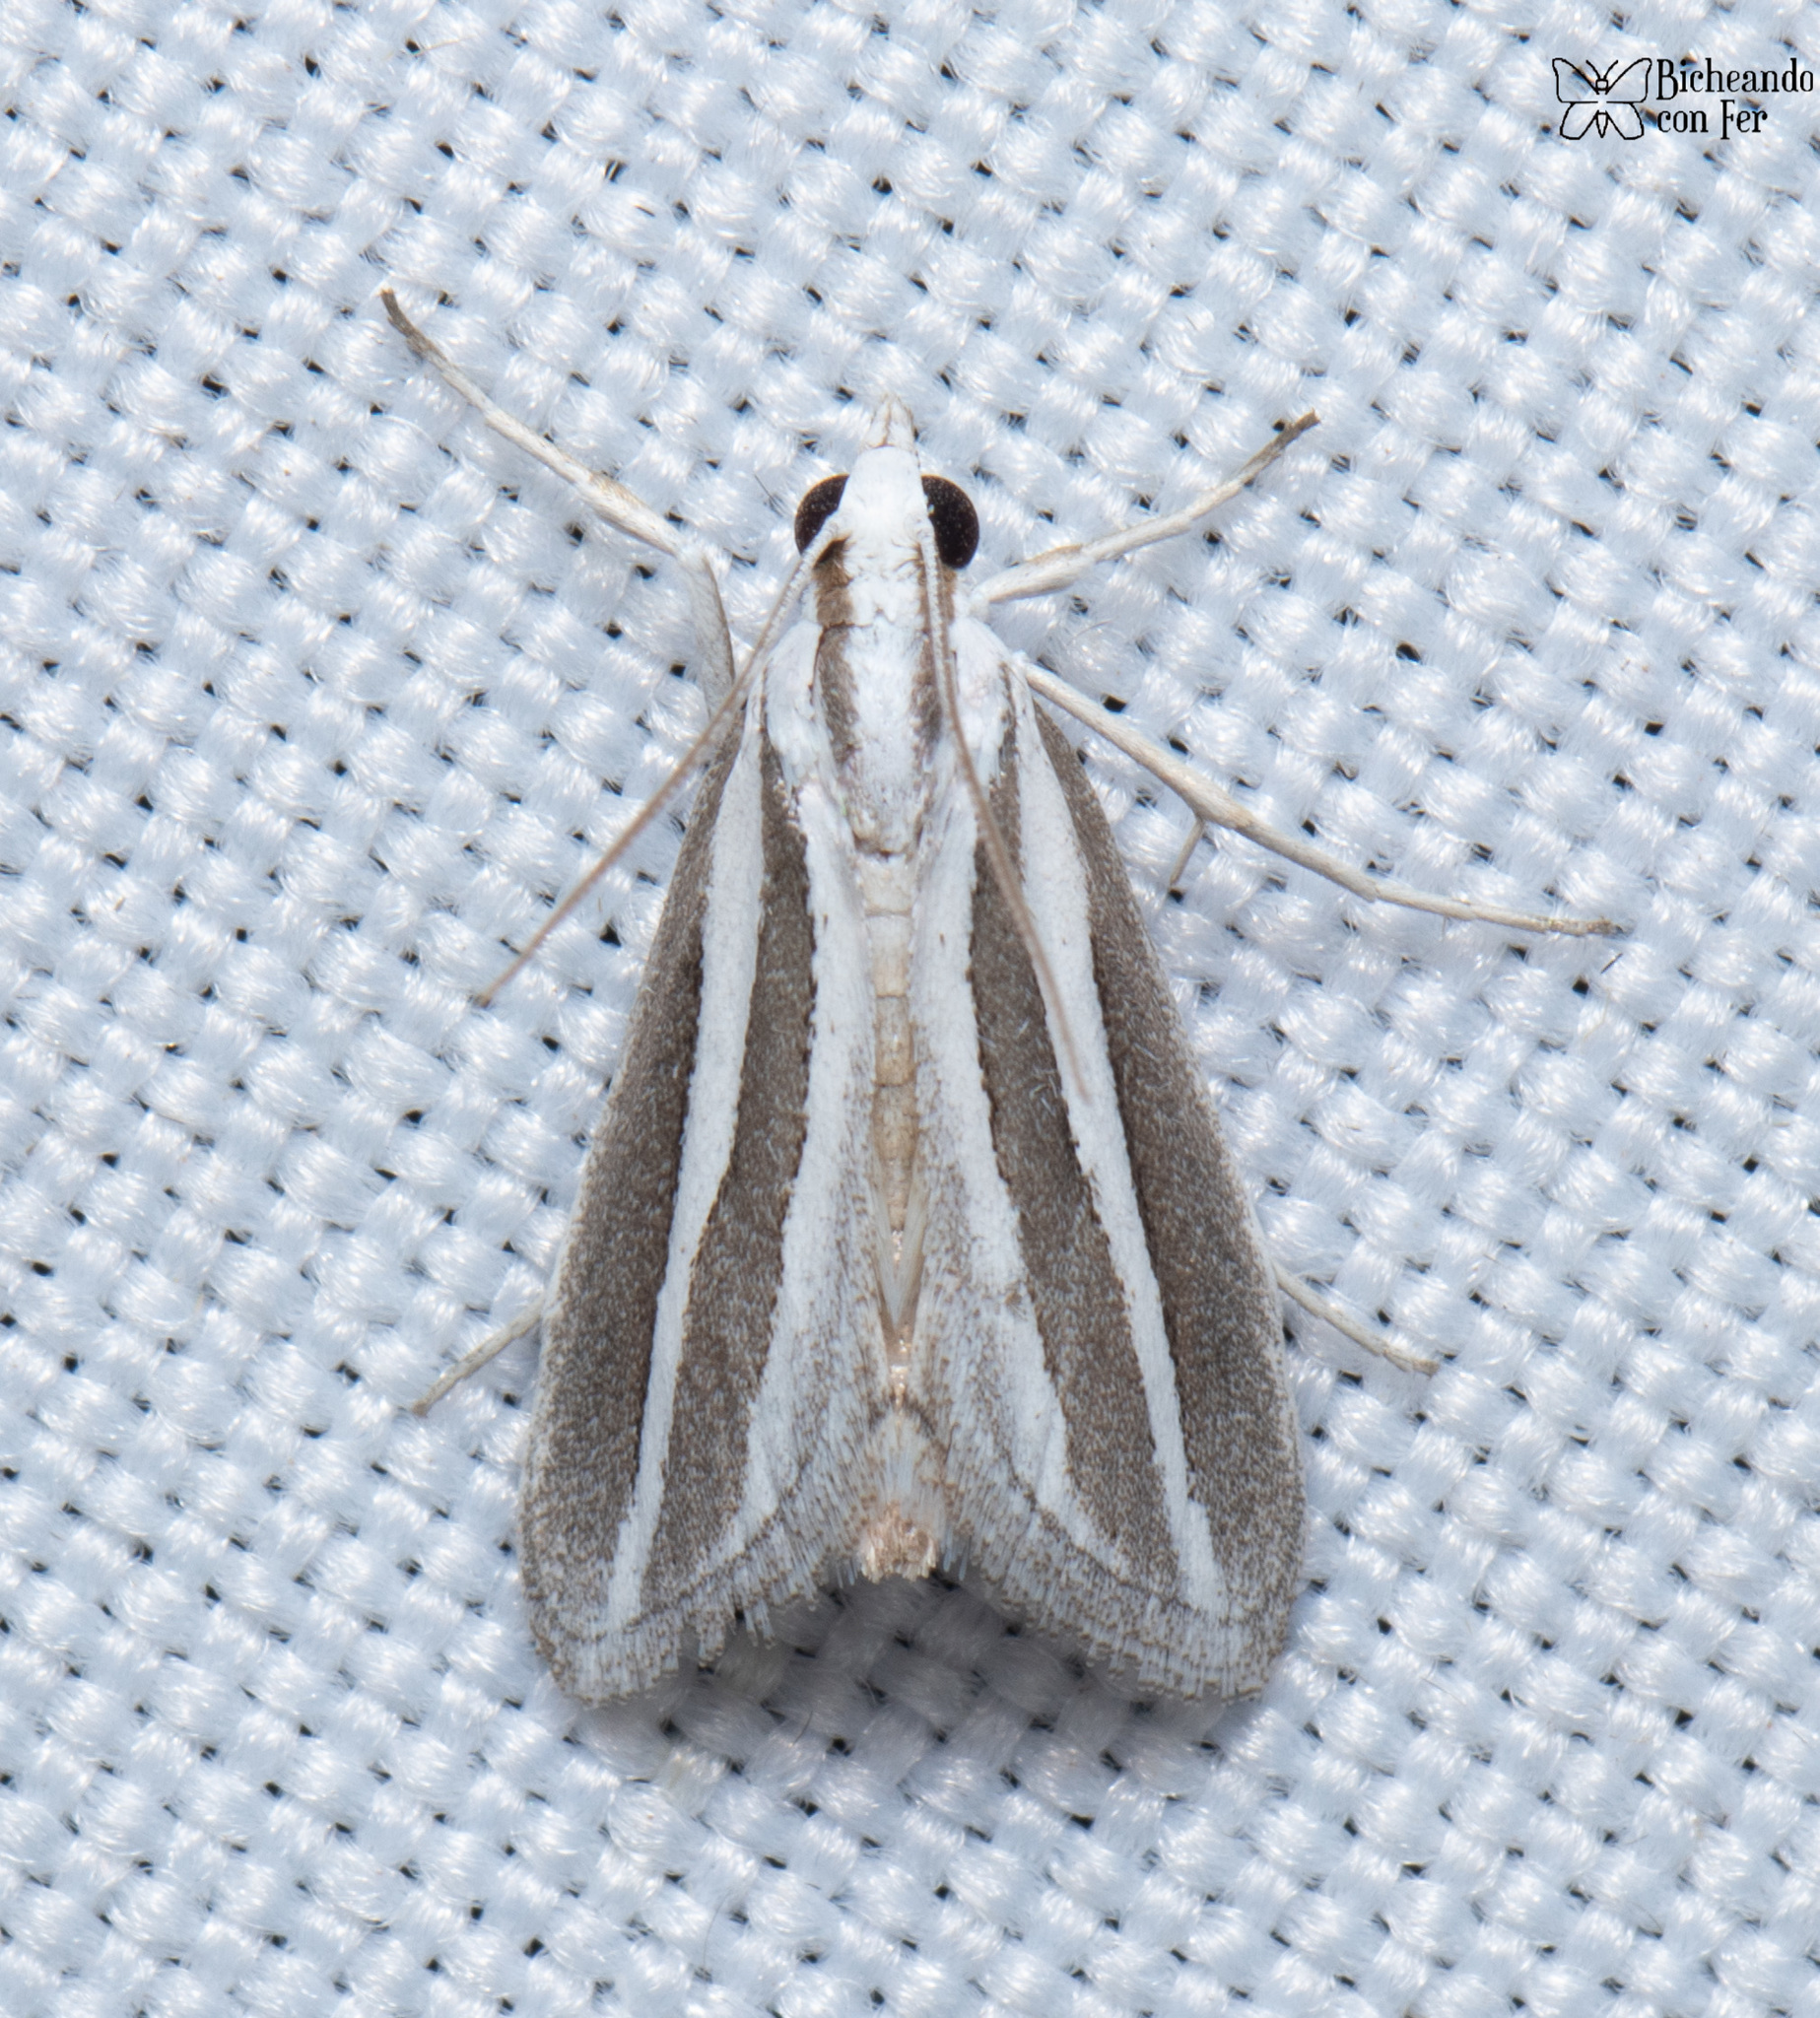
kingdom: Animalia
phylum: Arthropoda
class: Insecta
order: Lepidoptera
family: Crambidae
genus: Upiga
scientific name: Upiga virescens
